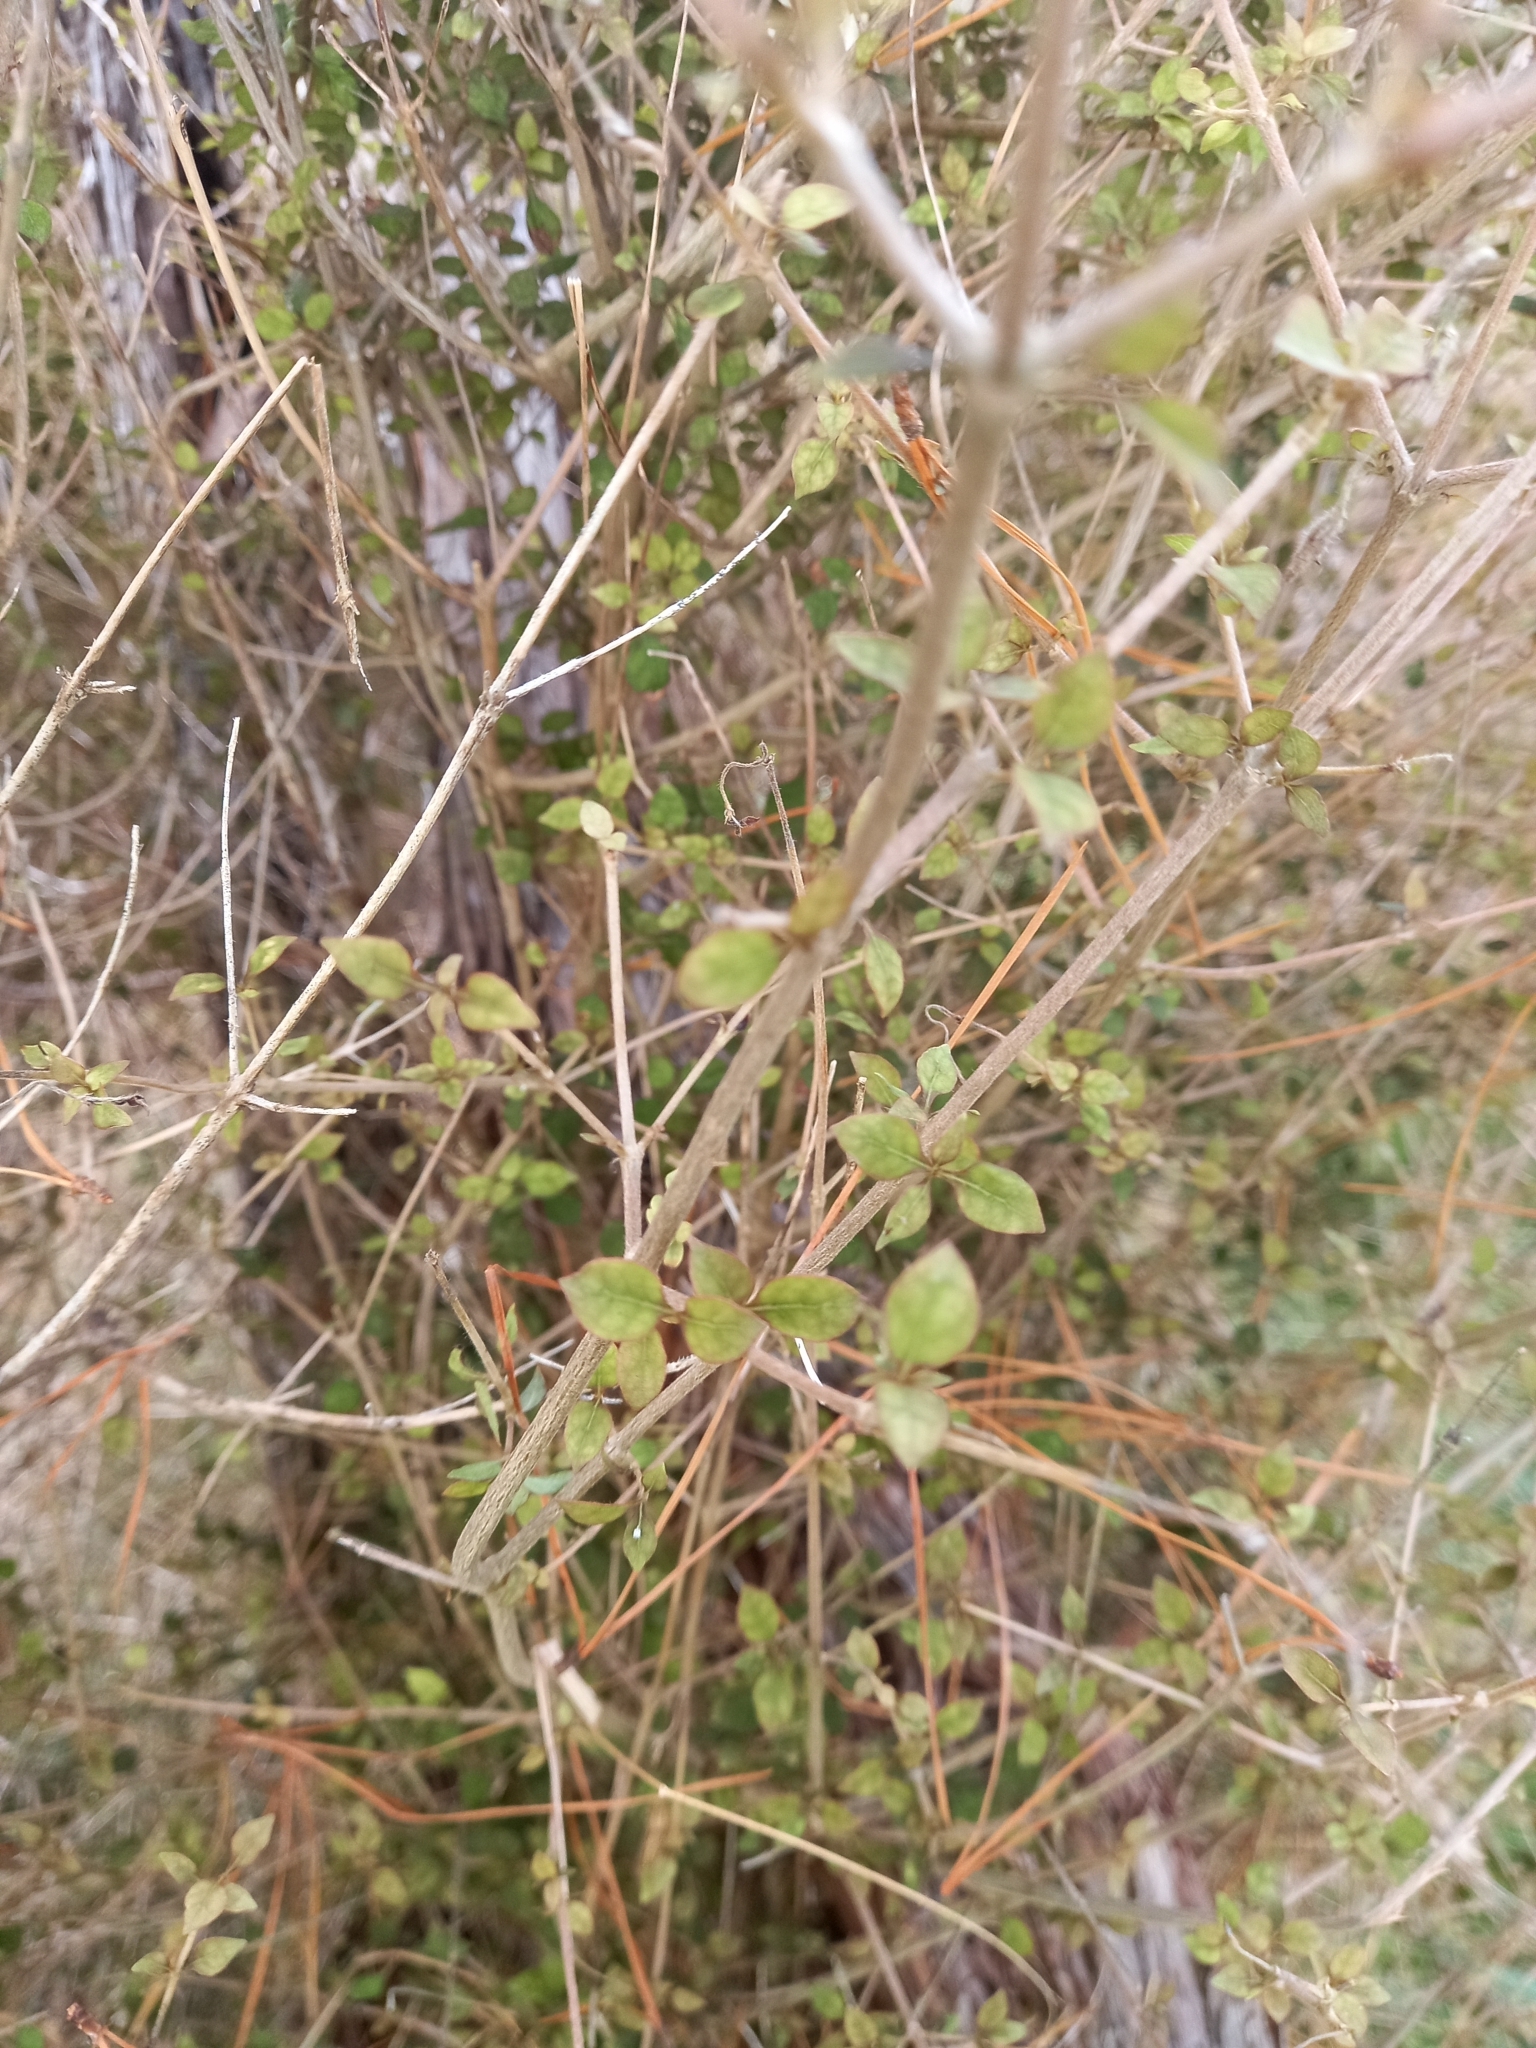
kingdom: Plantae
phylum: Tracheophyta
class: Magnoliopsida
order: Gentianales
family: Rubiaceae
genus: Coprosma
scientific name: Coprosma areolata
